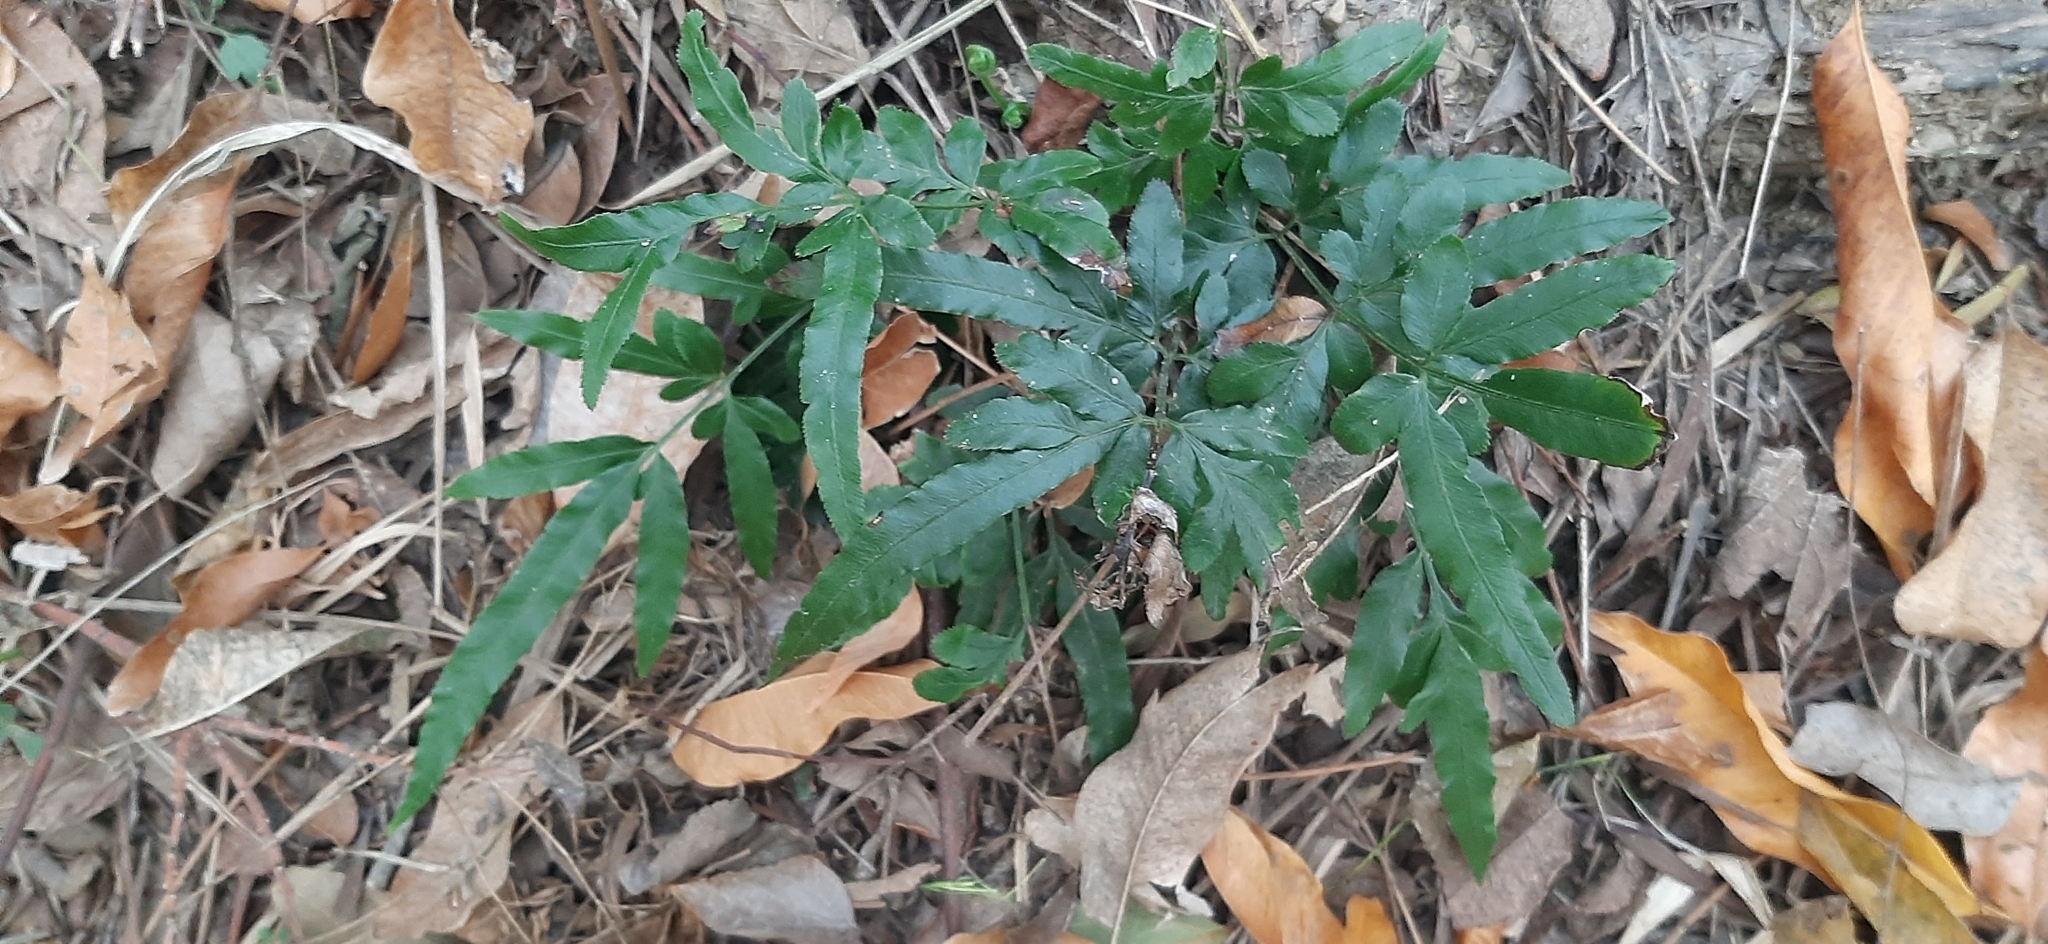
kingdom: Plantae
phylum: Tracheophyta
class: Polypodiopsida
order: Polypodiales
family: Pteridaceae
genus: Pteris
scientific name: Pteris ensiformis
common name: Sword brake
